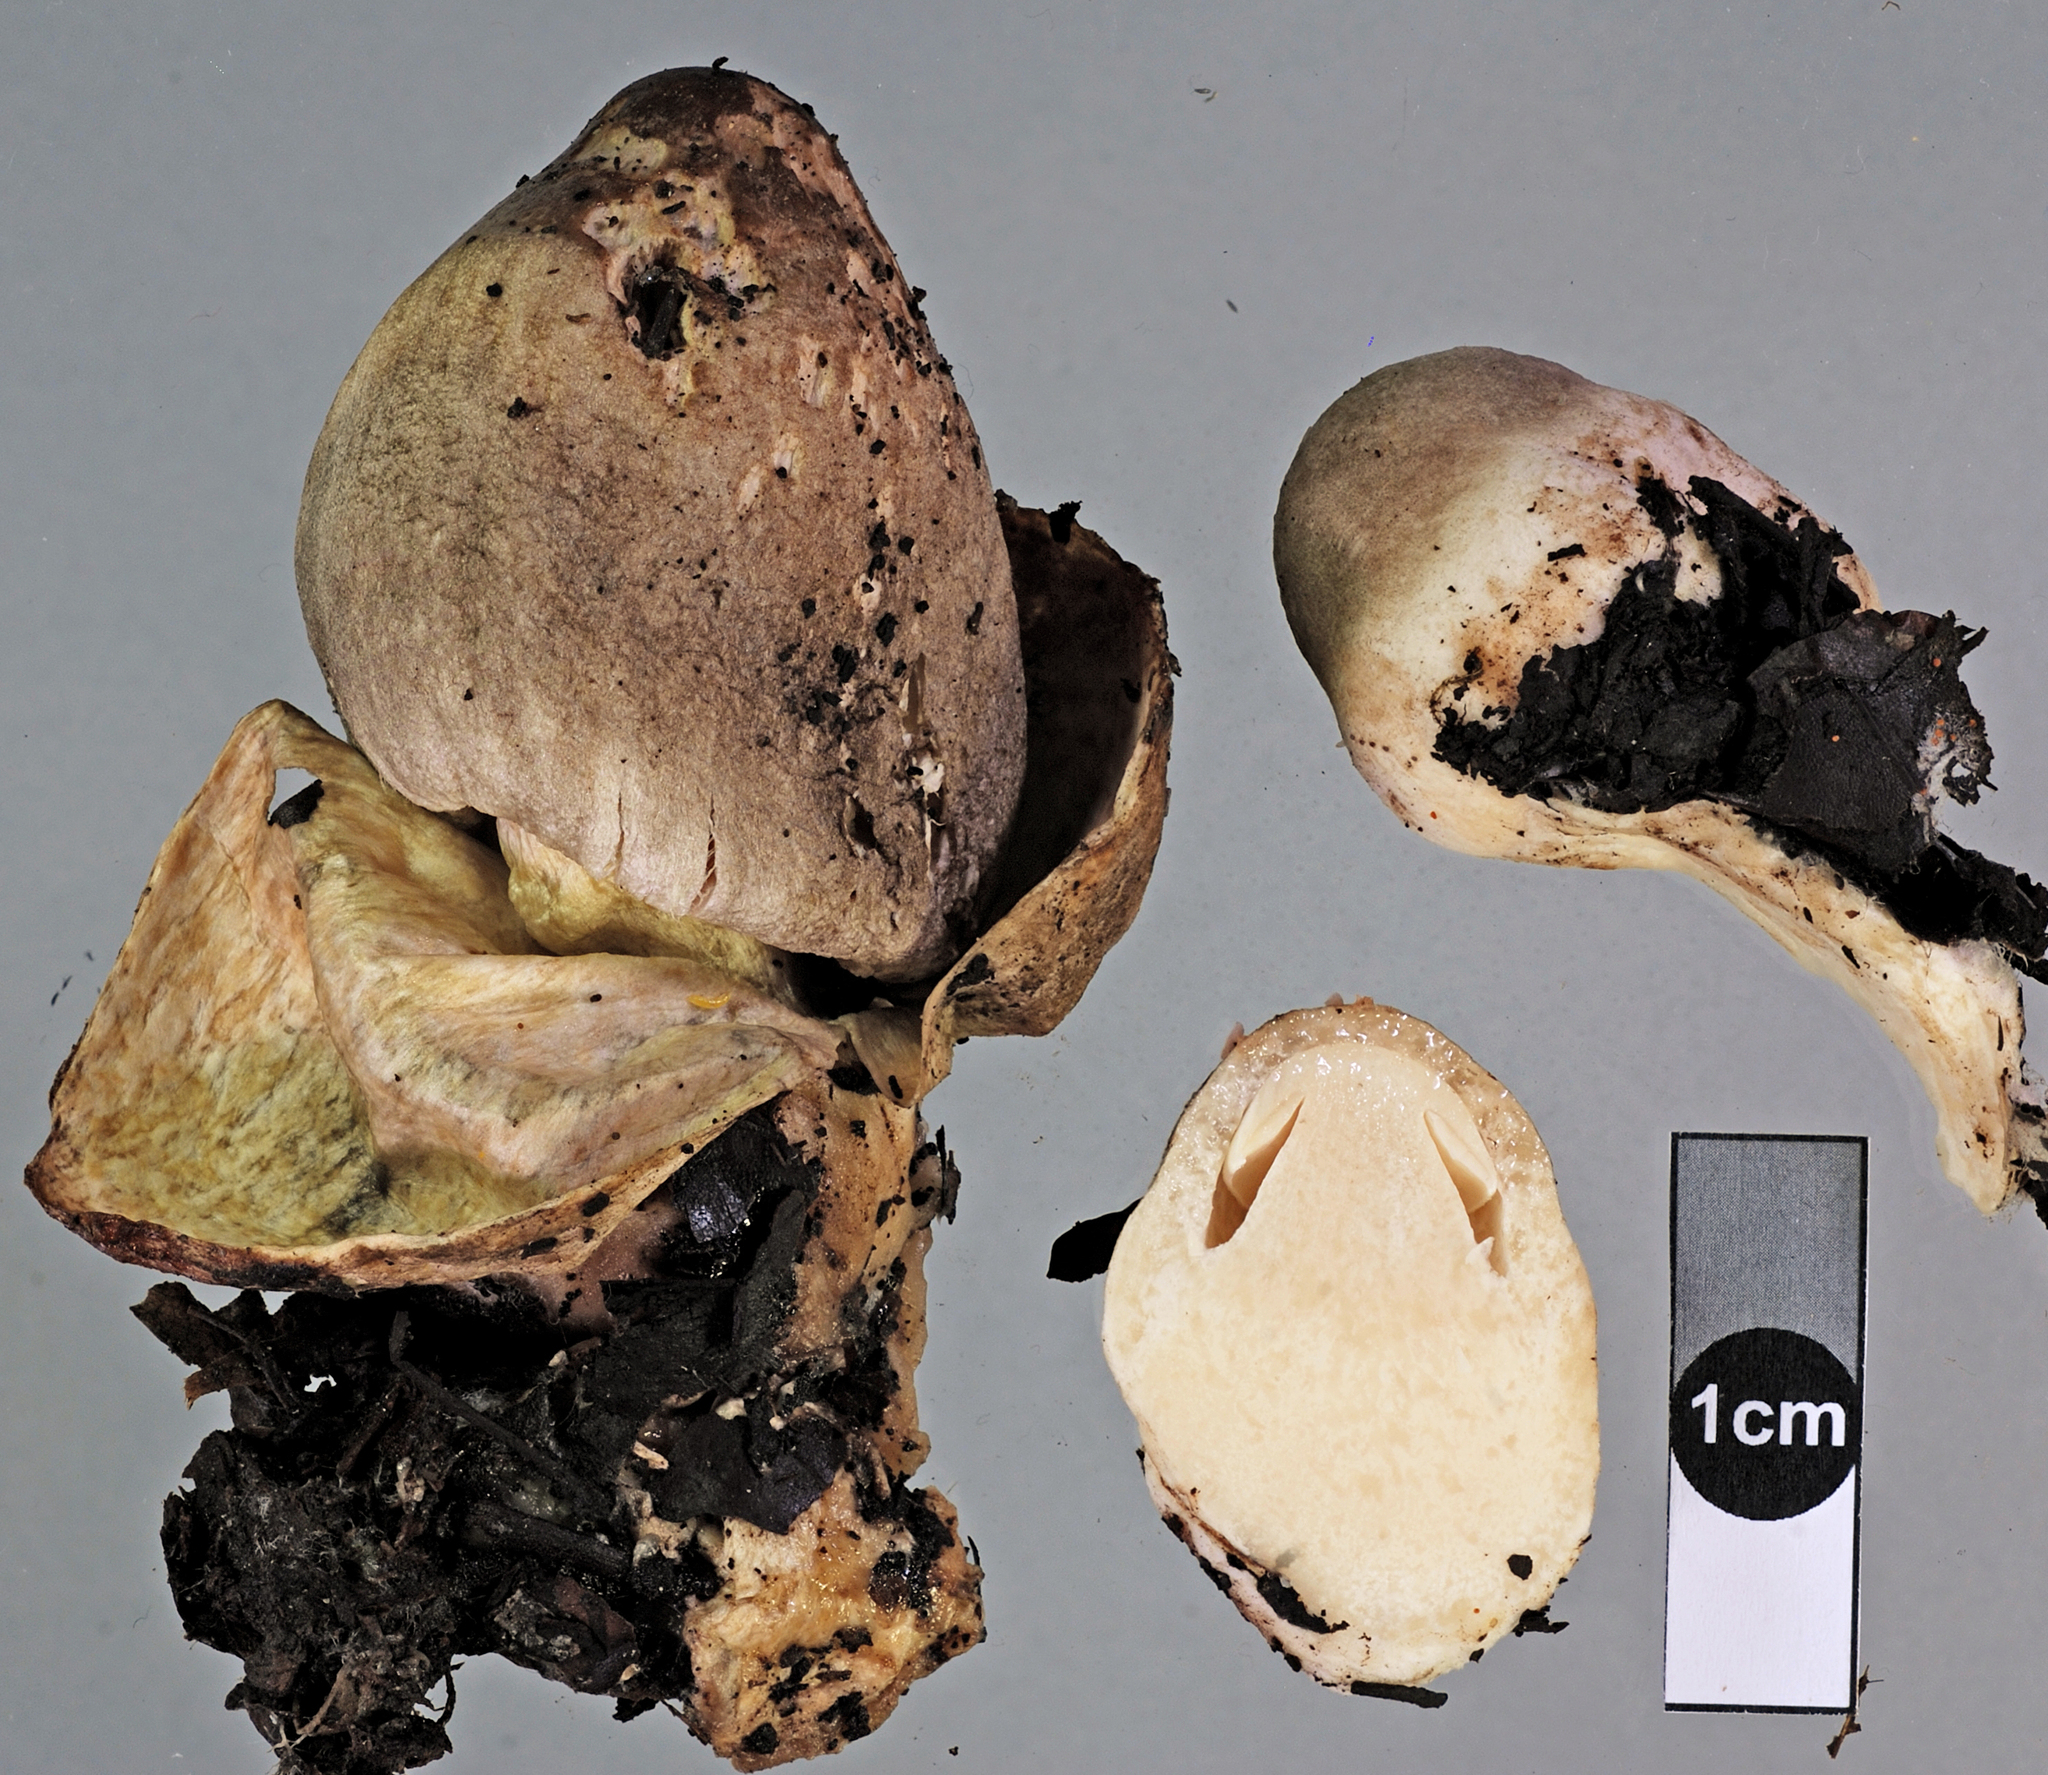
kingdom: Fungi
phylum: Basidiomycota
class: Agaricomycetes
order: Agaricales
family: Pluteaceae
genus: Volvariella
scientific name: Volvariella volvacea
